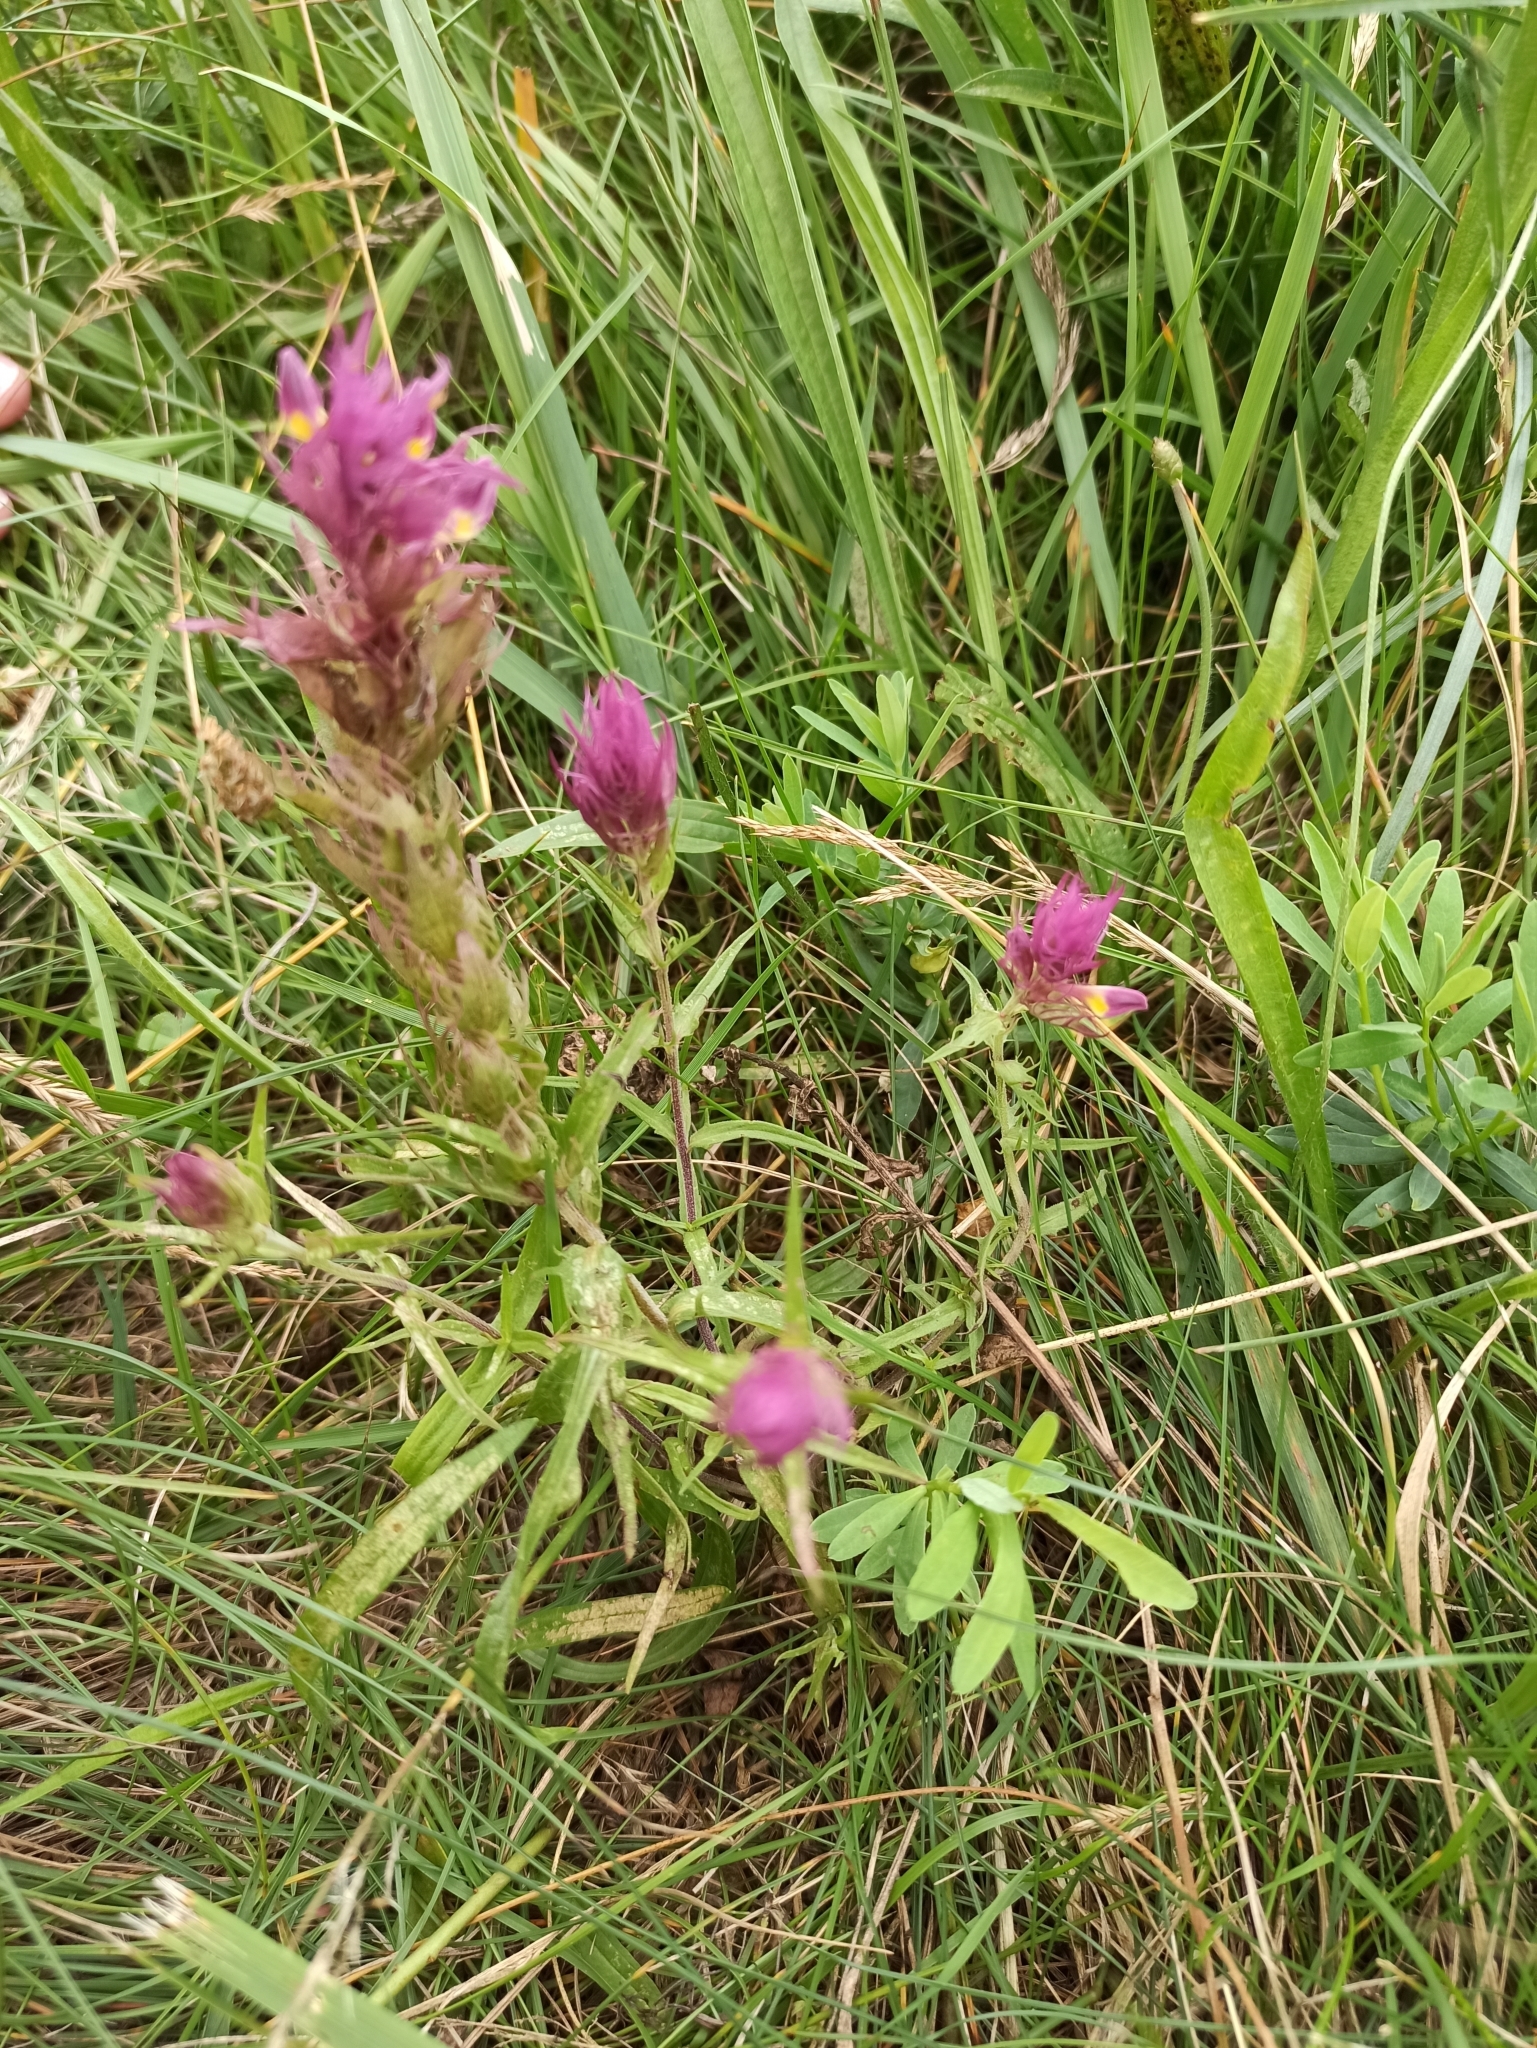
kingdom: Plantae
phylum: Tracheophyta
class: Magnoliopsida
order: Lamiales
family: Orobanchaceae
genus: Melampyrum
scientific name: Melampyrum arvense
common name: Field cow-wheat
